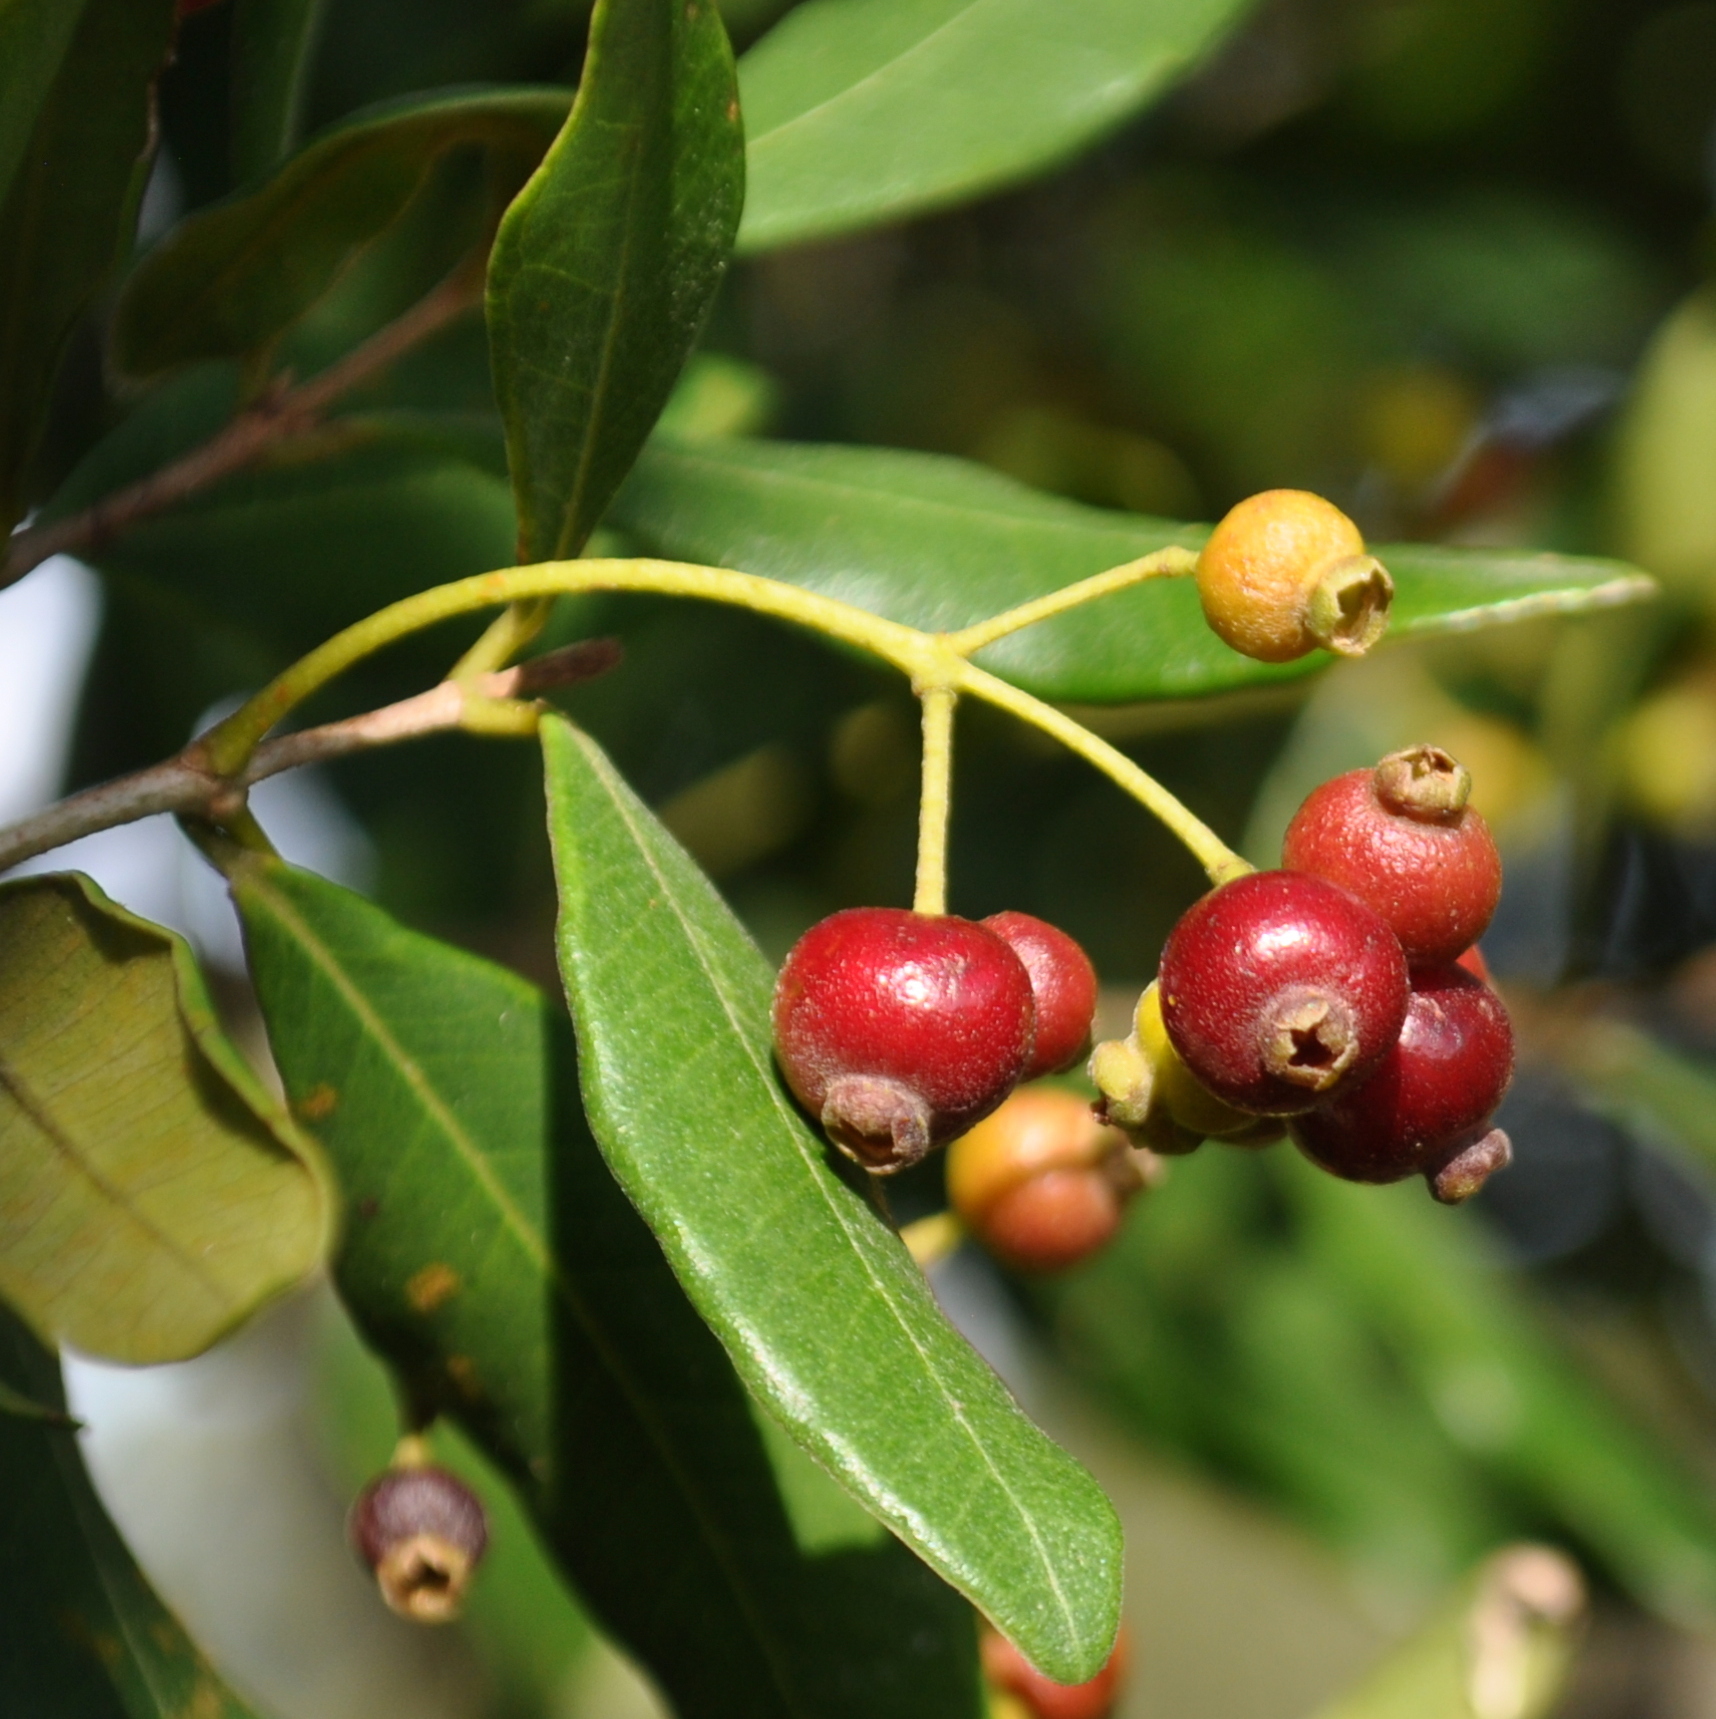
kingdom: Plantae
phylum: Tracheophyta
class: Magnoliopsida
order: Myrtales
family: Myrtaceae
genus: Myrcia
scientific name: Myrcia palustris
